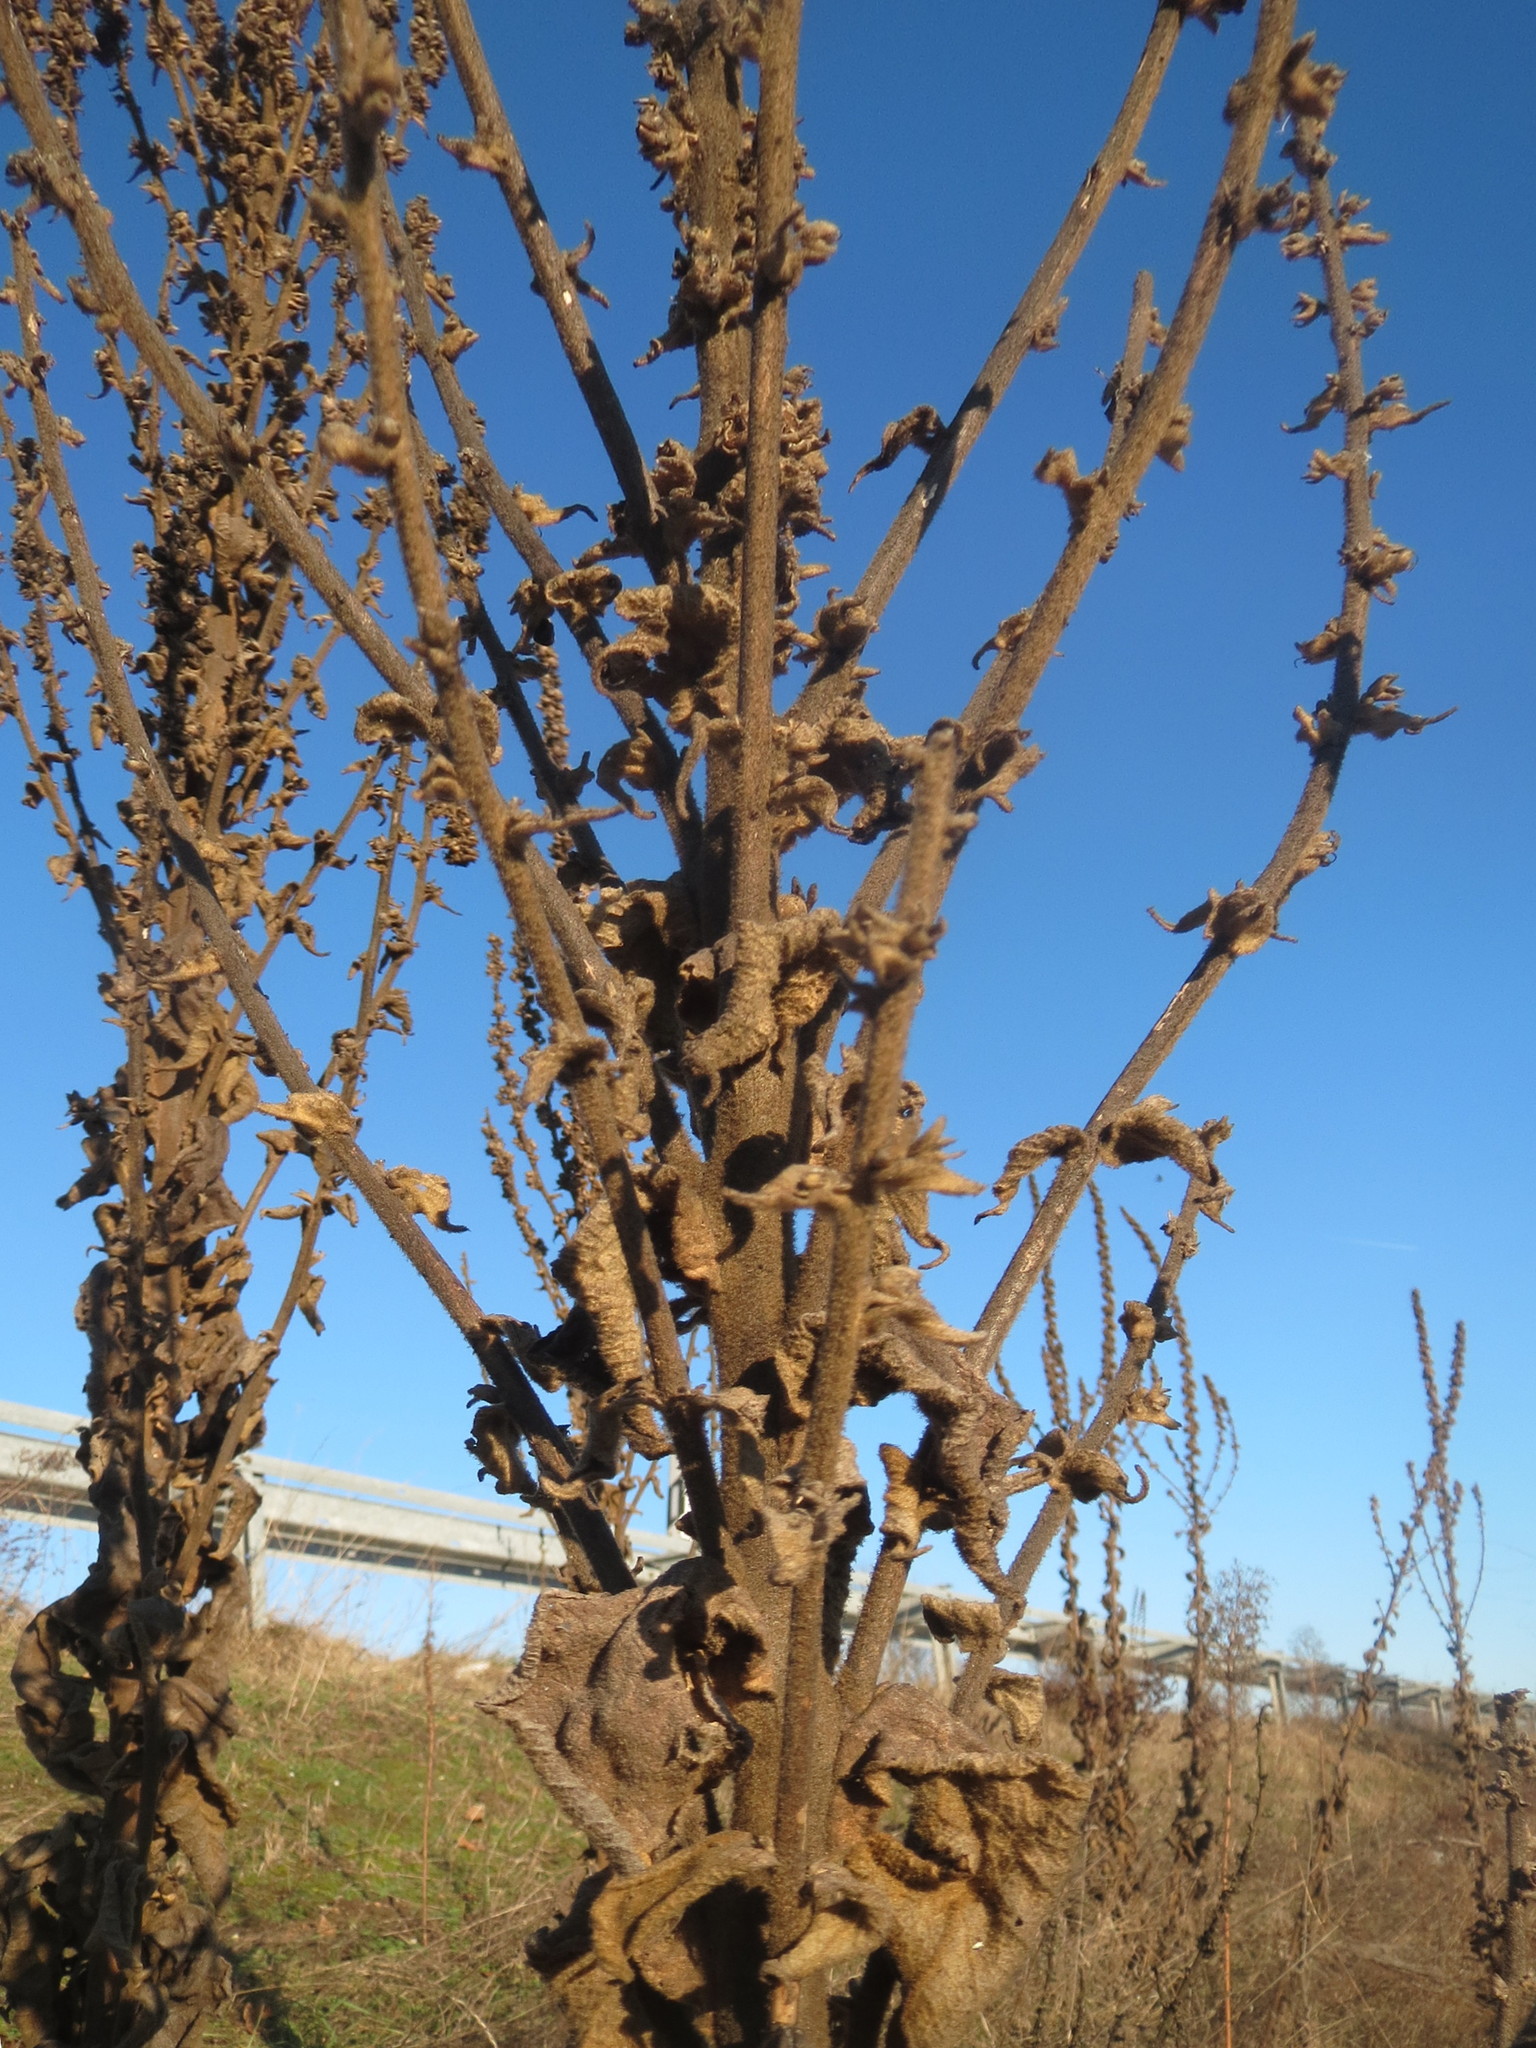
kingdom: Plantae
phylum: Tracheophyta
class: Magnoliopsida
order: Lamiales
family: Scrophulariaceae
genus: Verbascum
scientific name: Verbascum thapsus
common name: Common mullein
